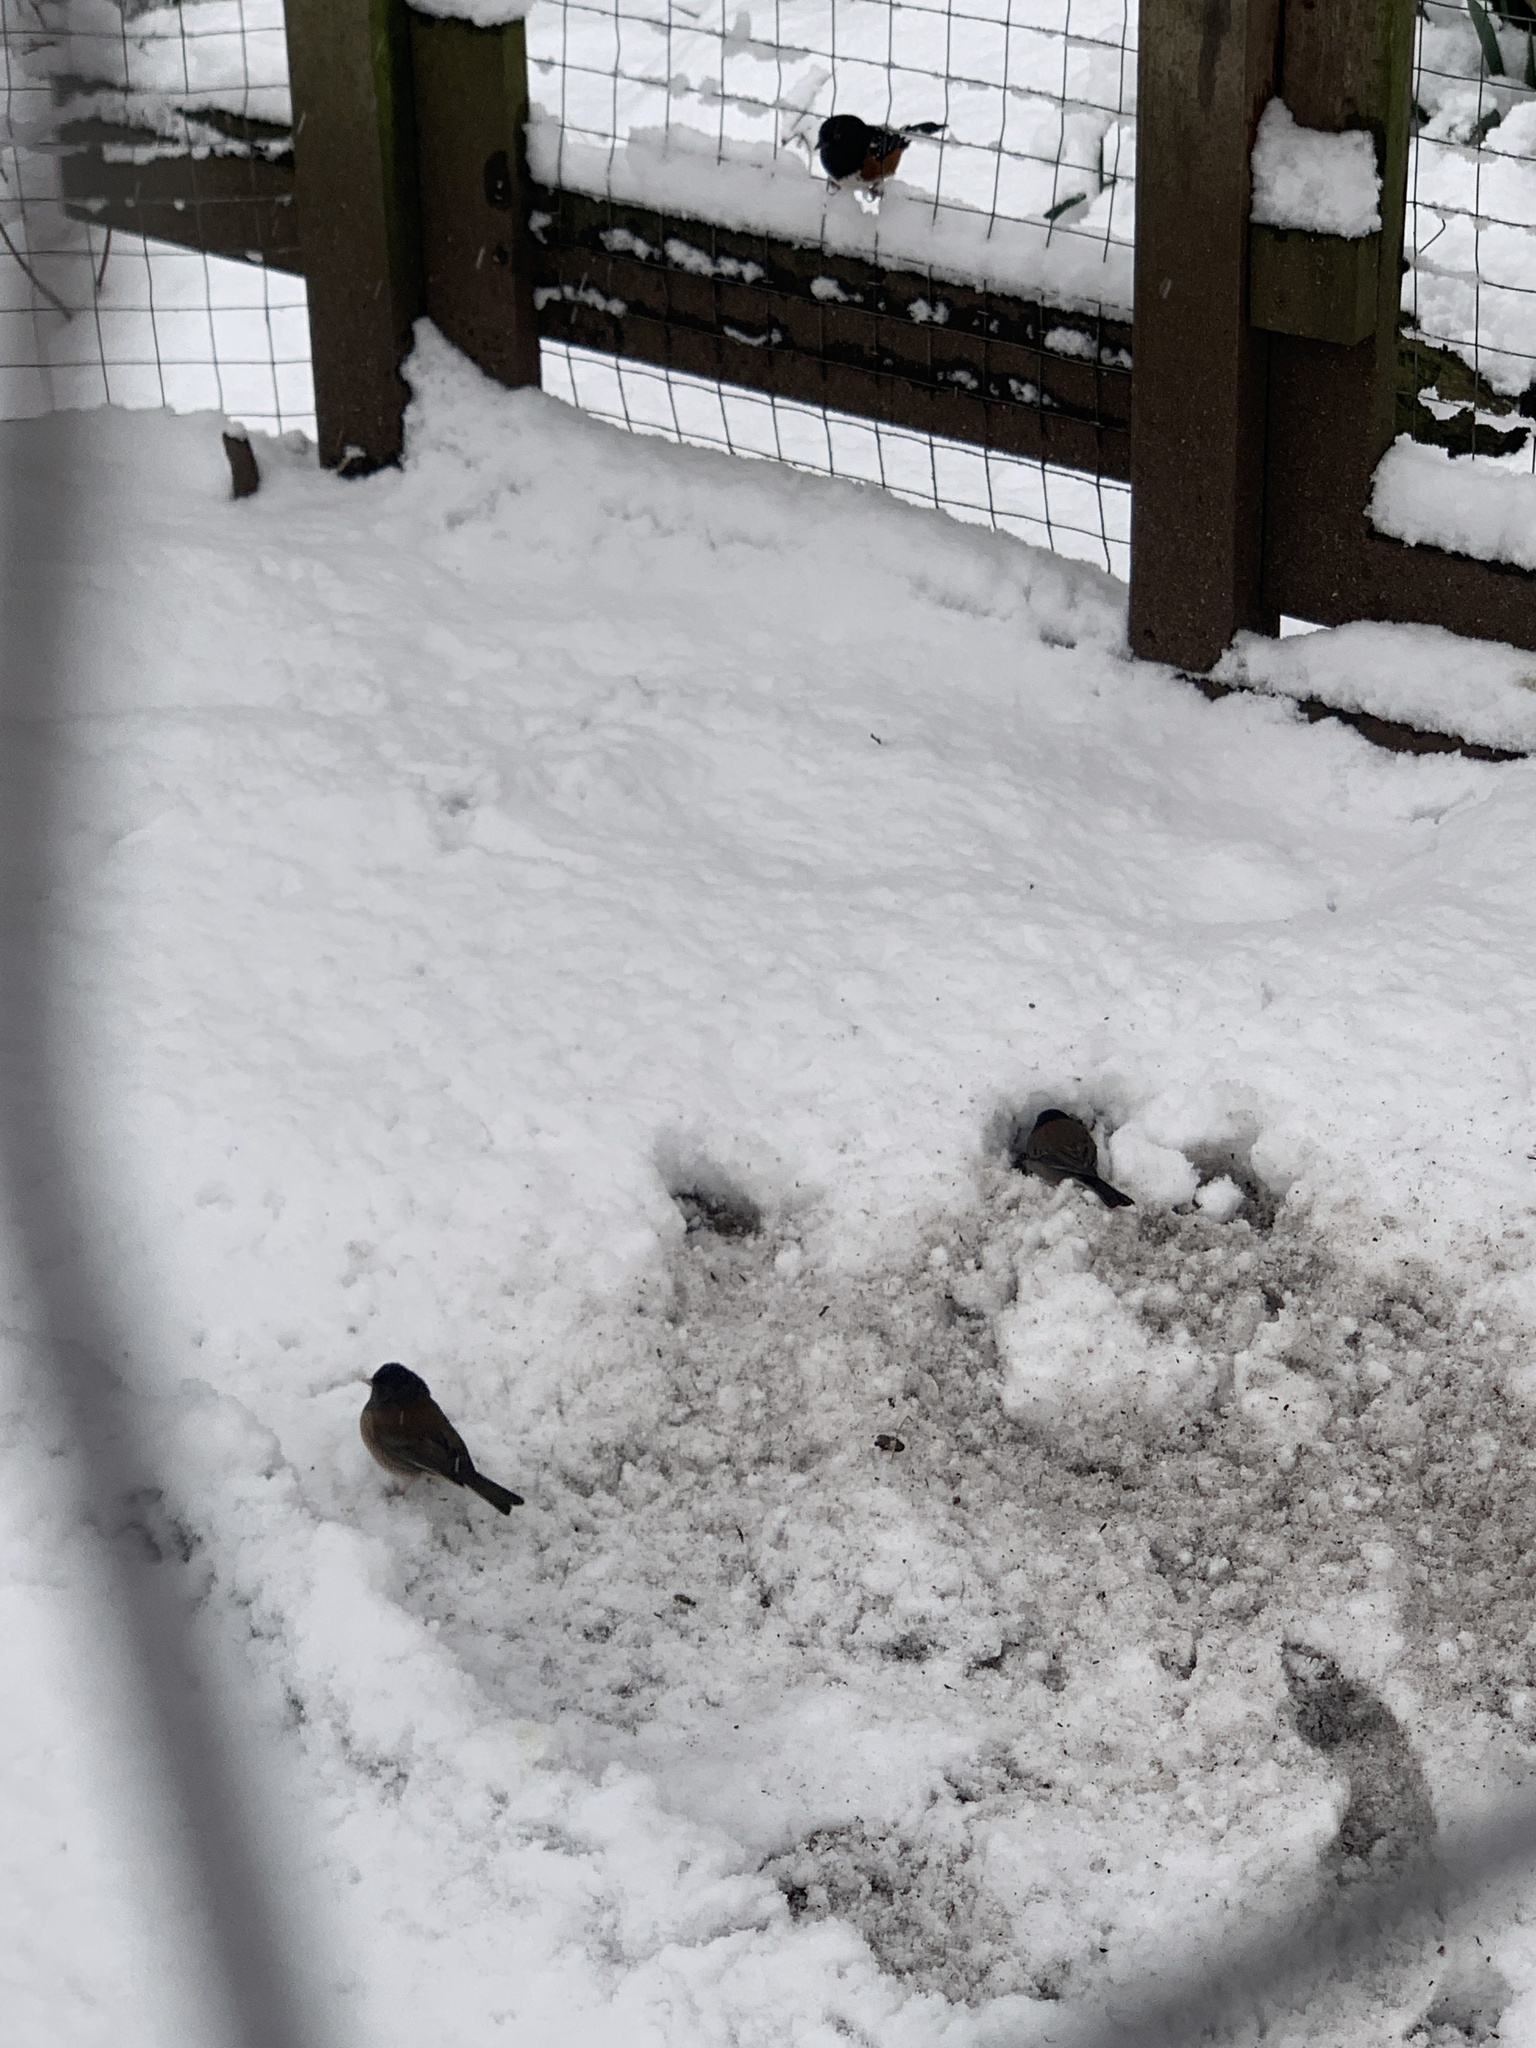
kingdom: Animalia
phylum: Chordata
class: Aves
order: Passeriformes
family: Passerellidae
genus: Junco
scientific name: Junco hyemalis
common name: Dark-eyed junco
